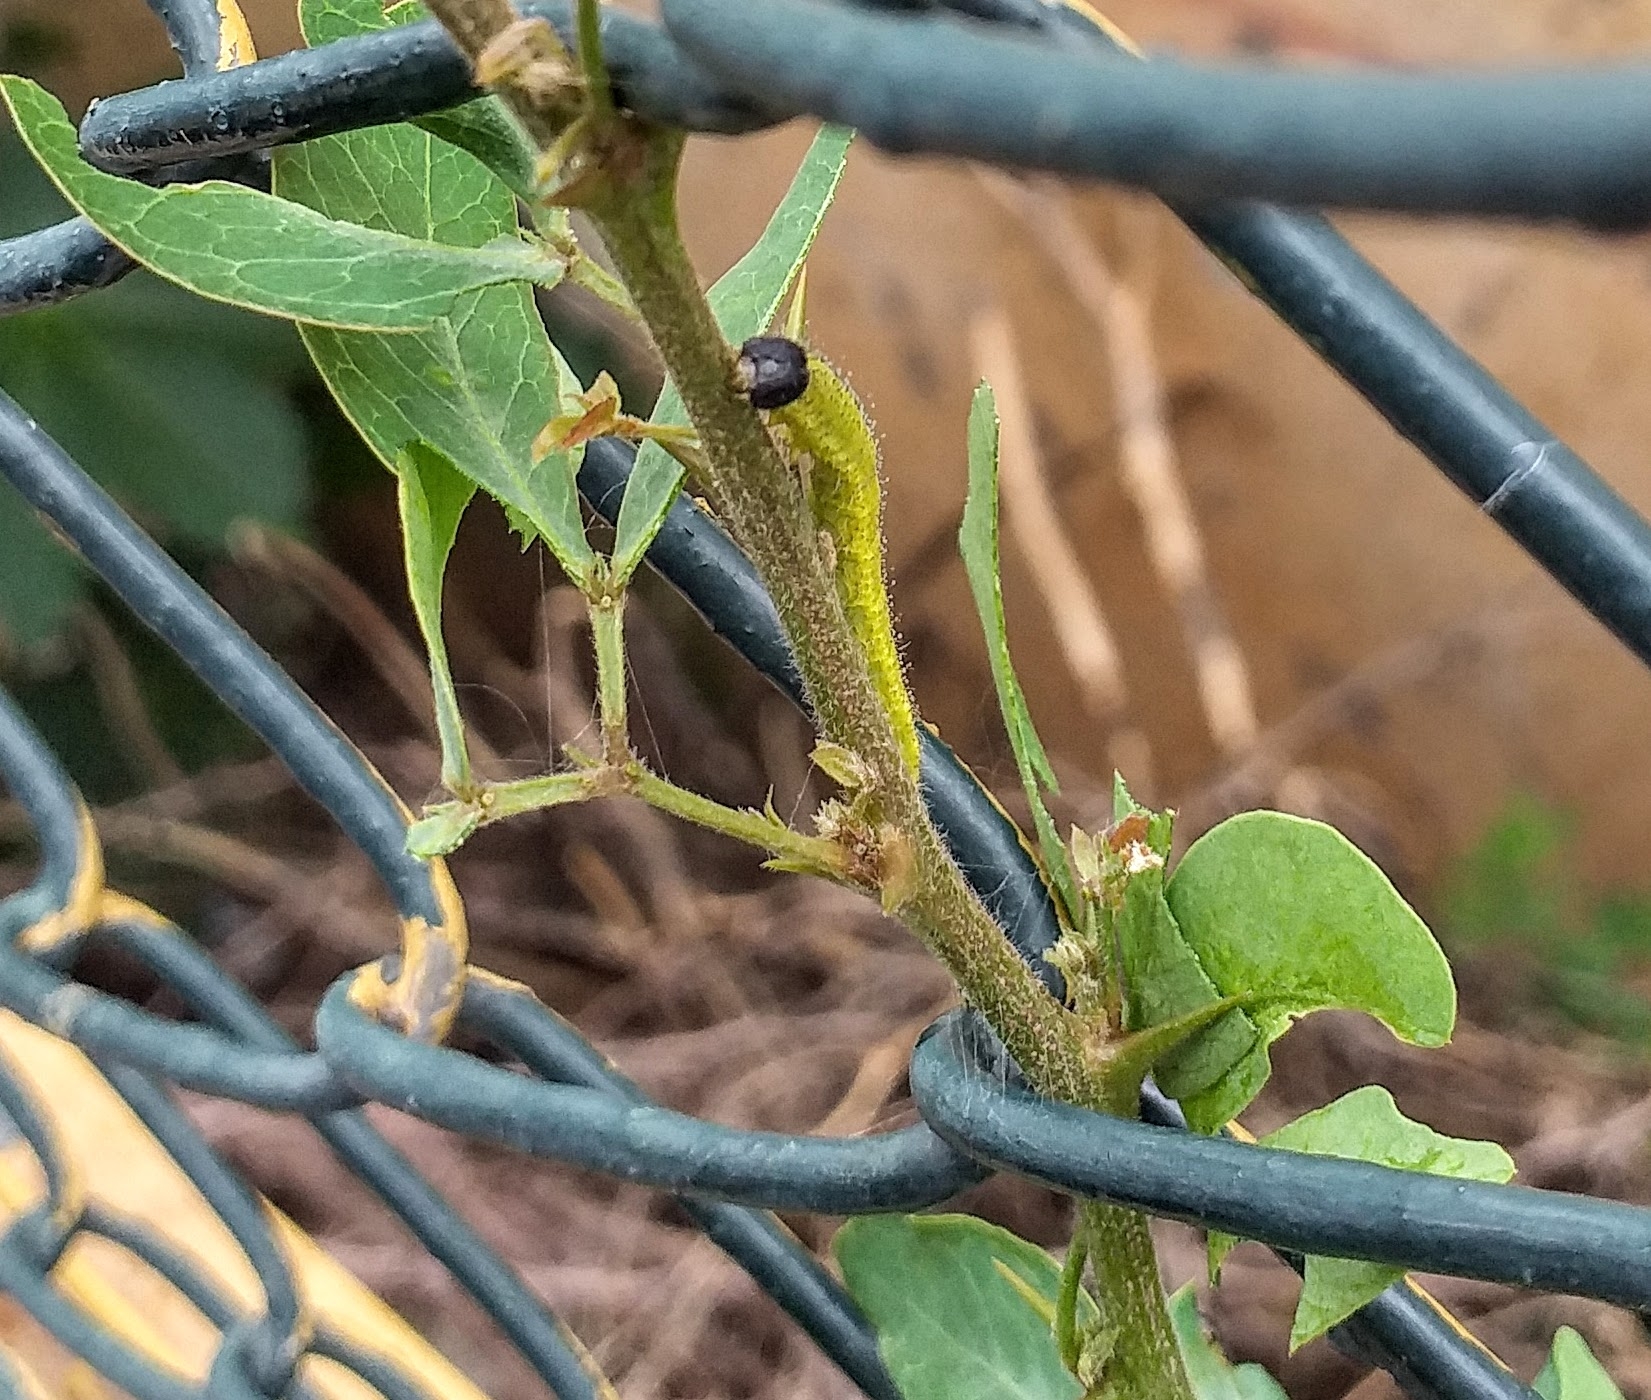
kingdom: Animalia
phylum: Arthropoda
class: Insecta
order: Lepidoptera
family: Pieridae
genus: Eurema
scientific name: Eurema blanda
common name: Three-spot grass yellow
